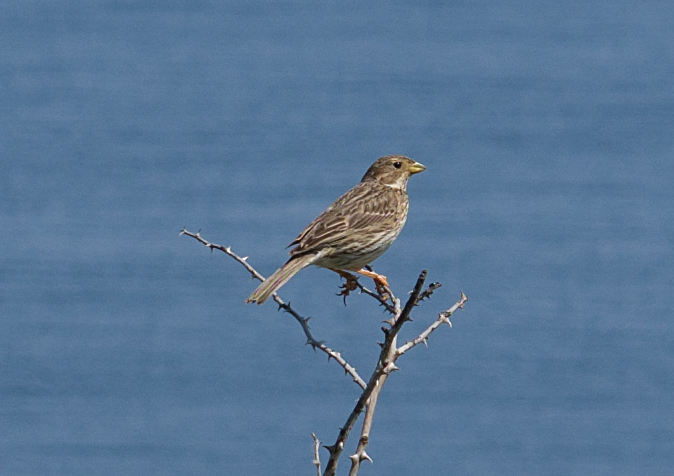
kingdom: Animalia
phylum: Chordata
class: Aves
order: Passeriformes
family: Emberizidae
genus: Emberiza
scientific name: Emberiza calandra
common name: Corn bunting
